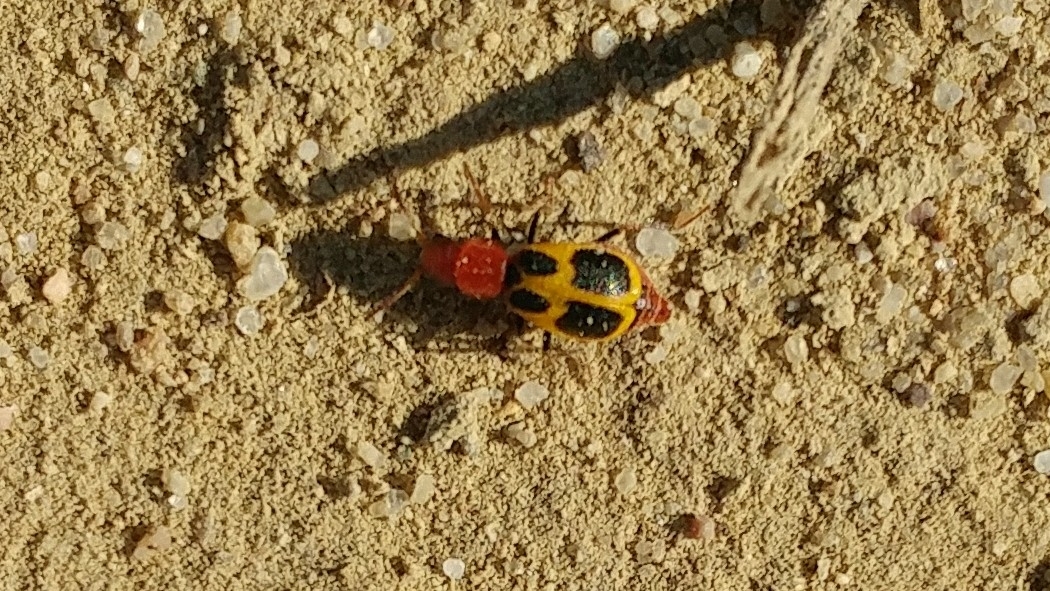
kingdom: Animalia
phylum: Arthropoda
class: Insecta
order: Coleoptera
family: Melyridae
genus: Collops
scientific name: Collops
